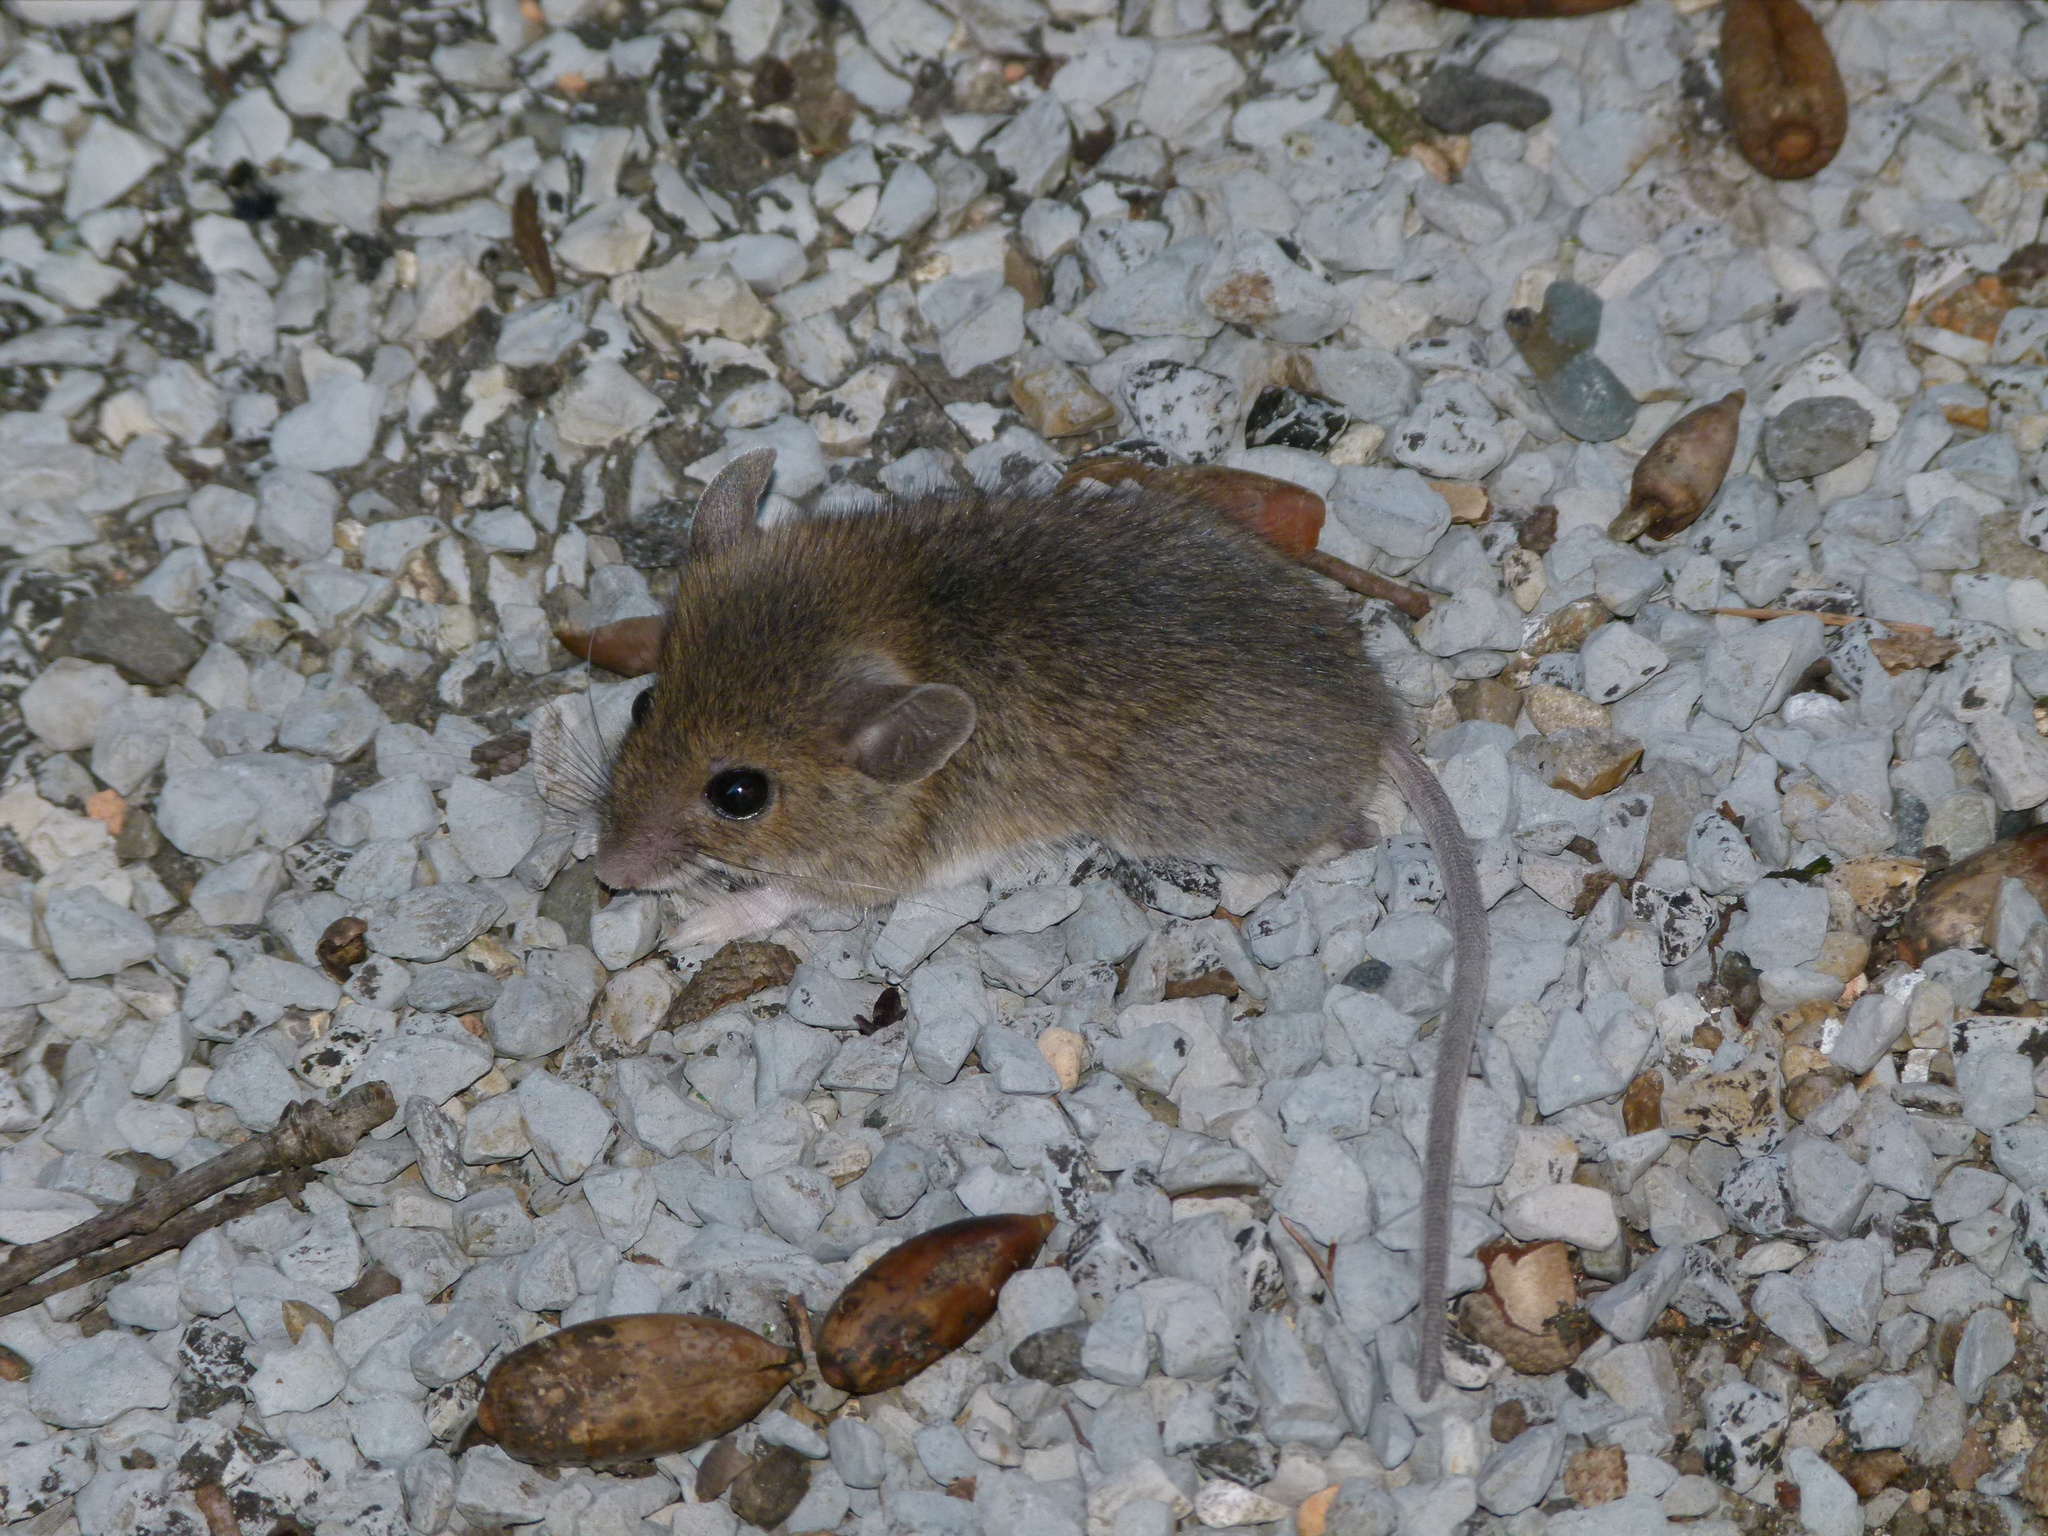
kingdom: Animalia
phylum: Chordata
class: Mammalia
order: Rodentia
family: Muridae
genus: Apodemus
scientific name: Apodemus sylvaticus
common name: Wood mouse
